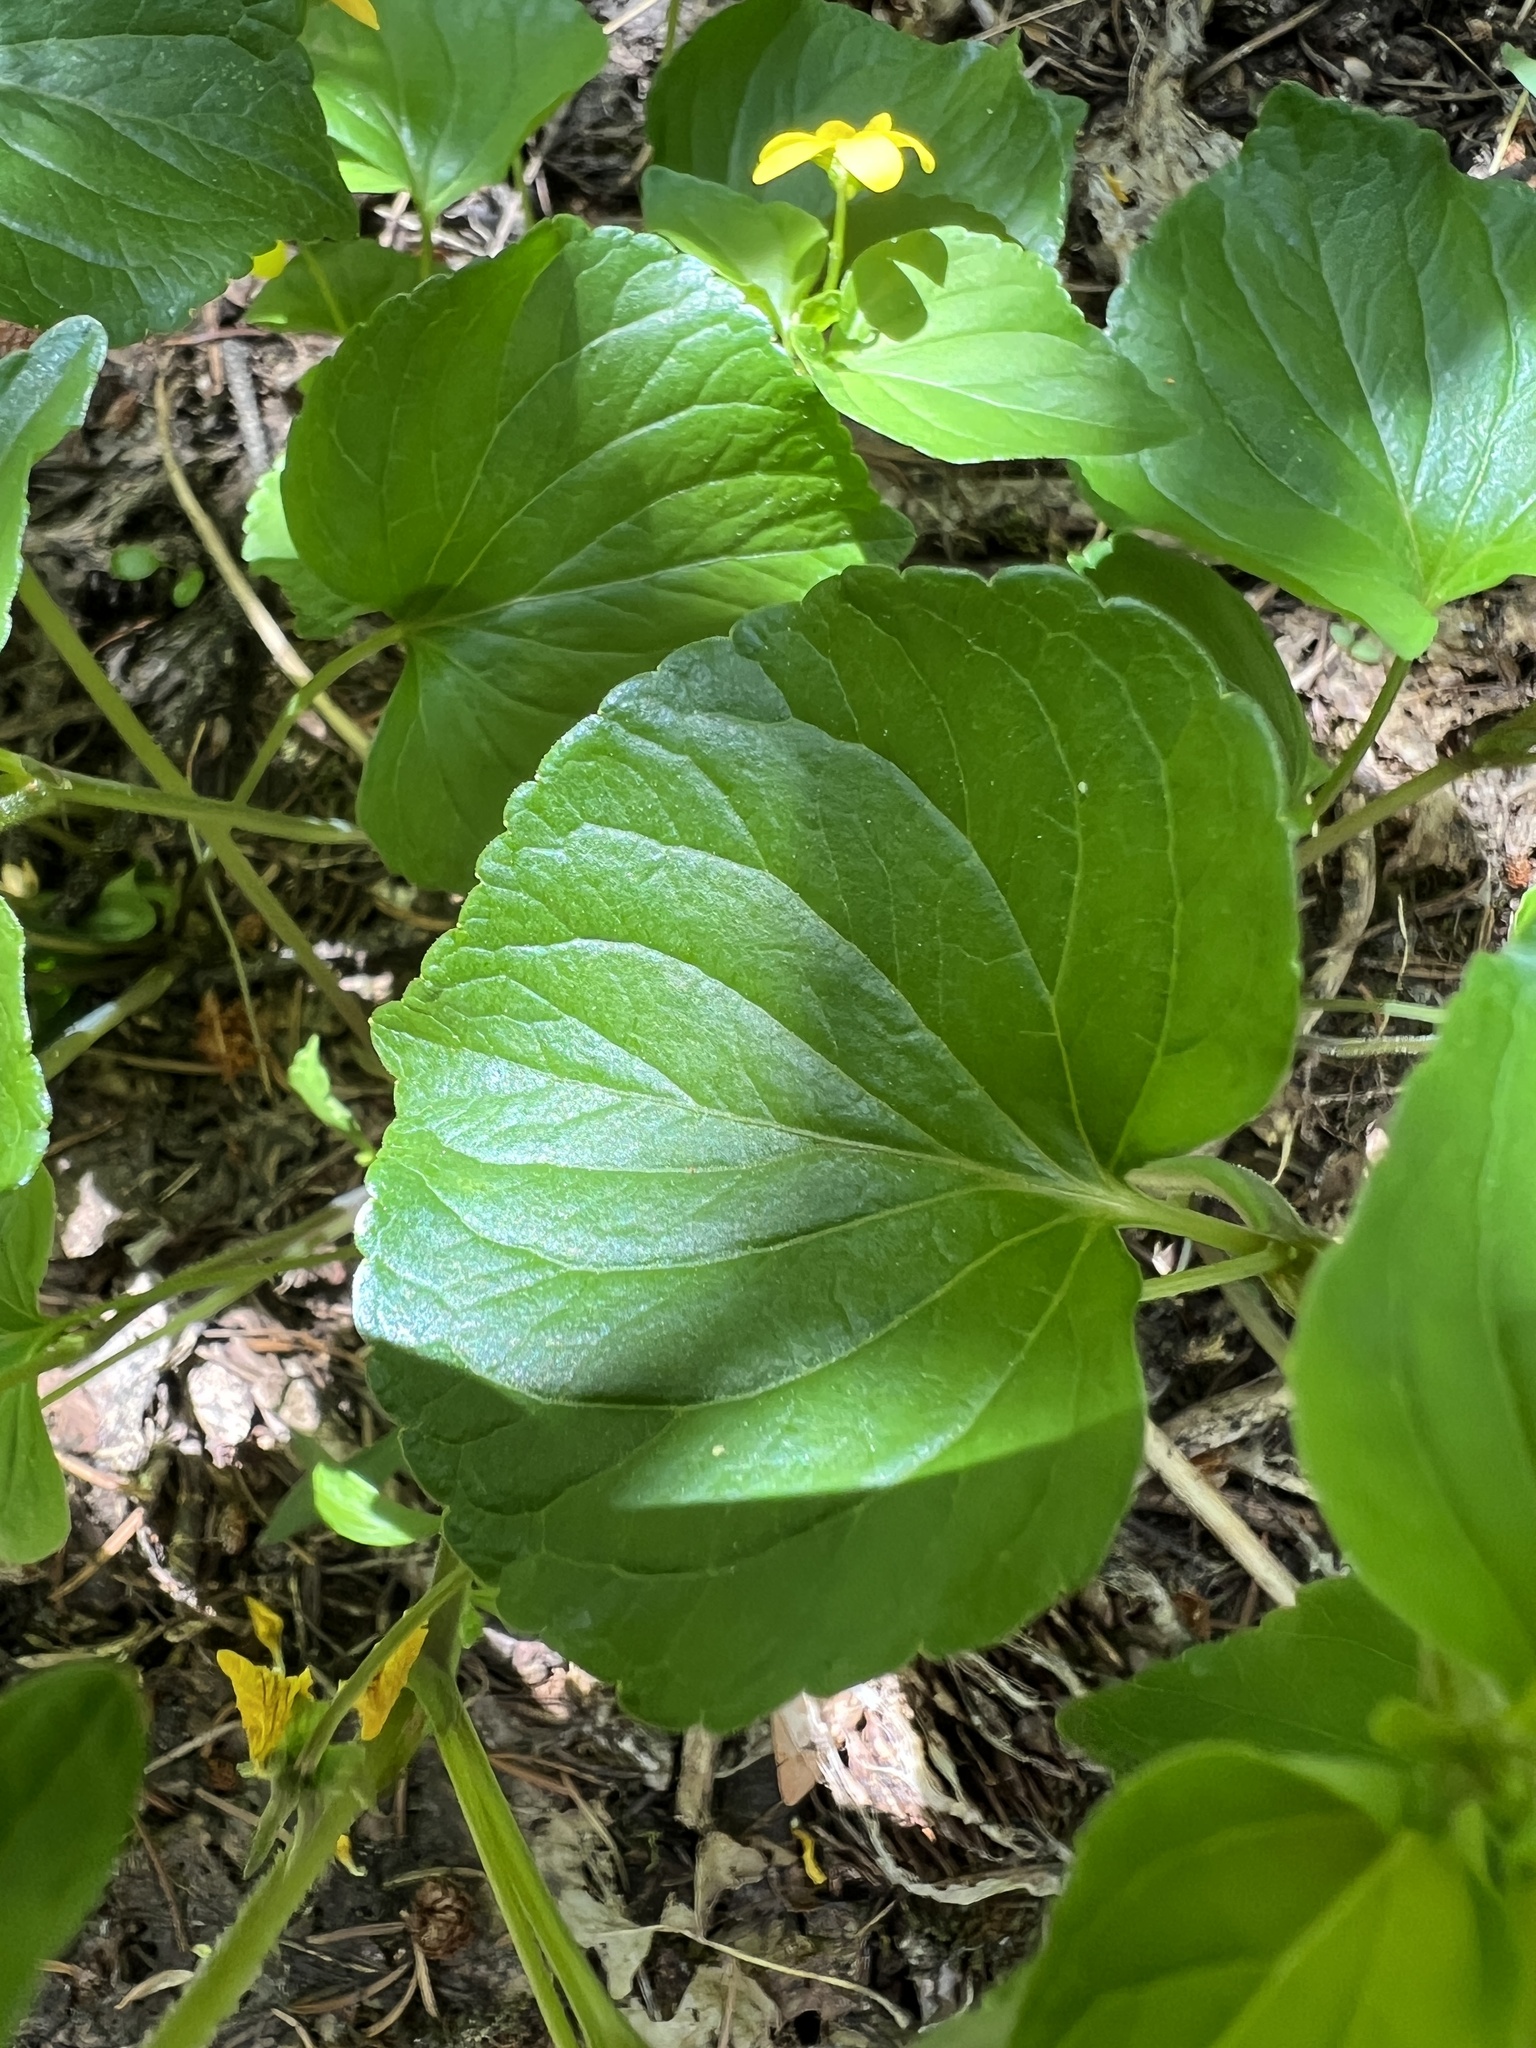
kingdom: Plantae
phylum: Tracheophyta
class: Magnoliopsida
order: Malpighiales
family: Violaceae
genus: Viola
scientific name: Viola glabella
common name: Stream violet
